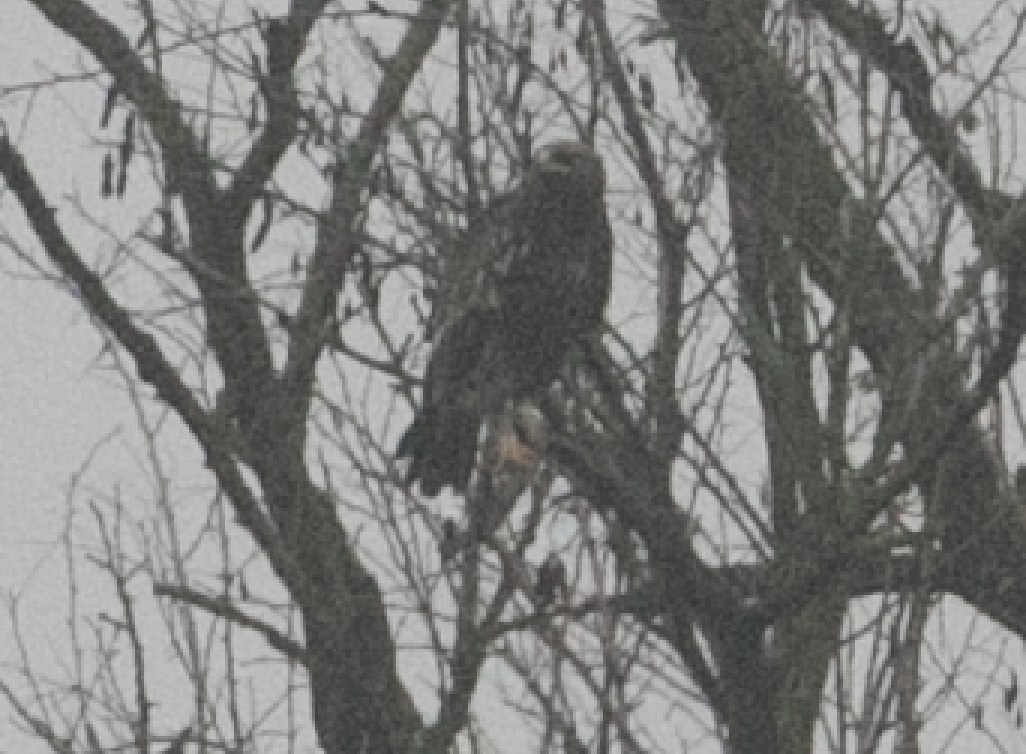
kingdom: Animalia
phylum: Chordata
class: Aves
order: Accipitriformes
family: Accipitridae
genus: Aquila
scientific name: Aquila clanga
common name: Greater spotted eagle
